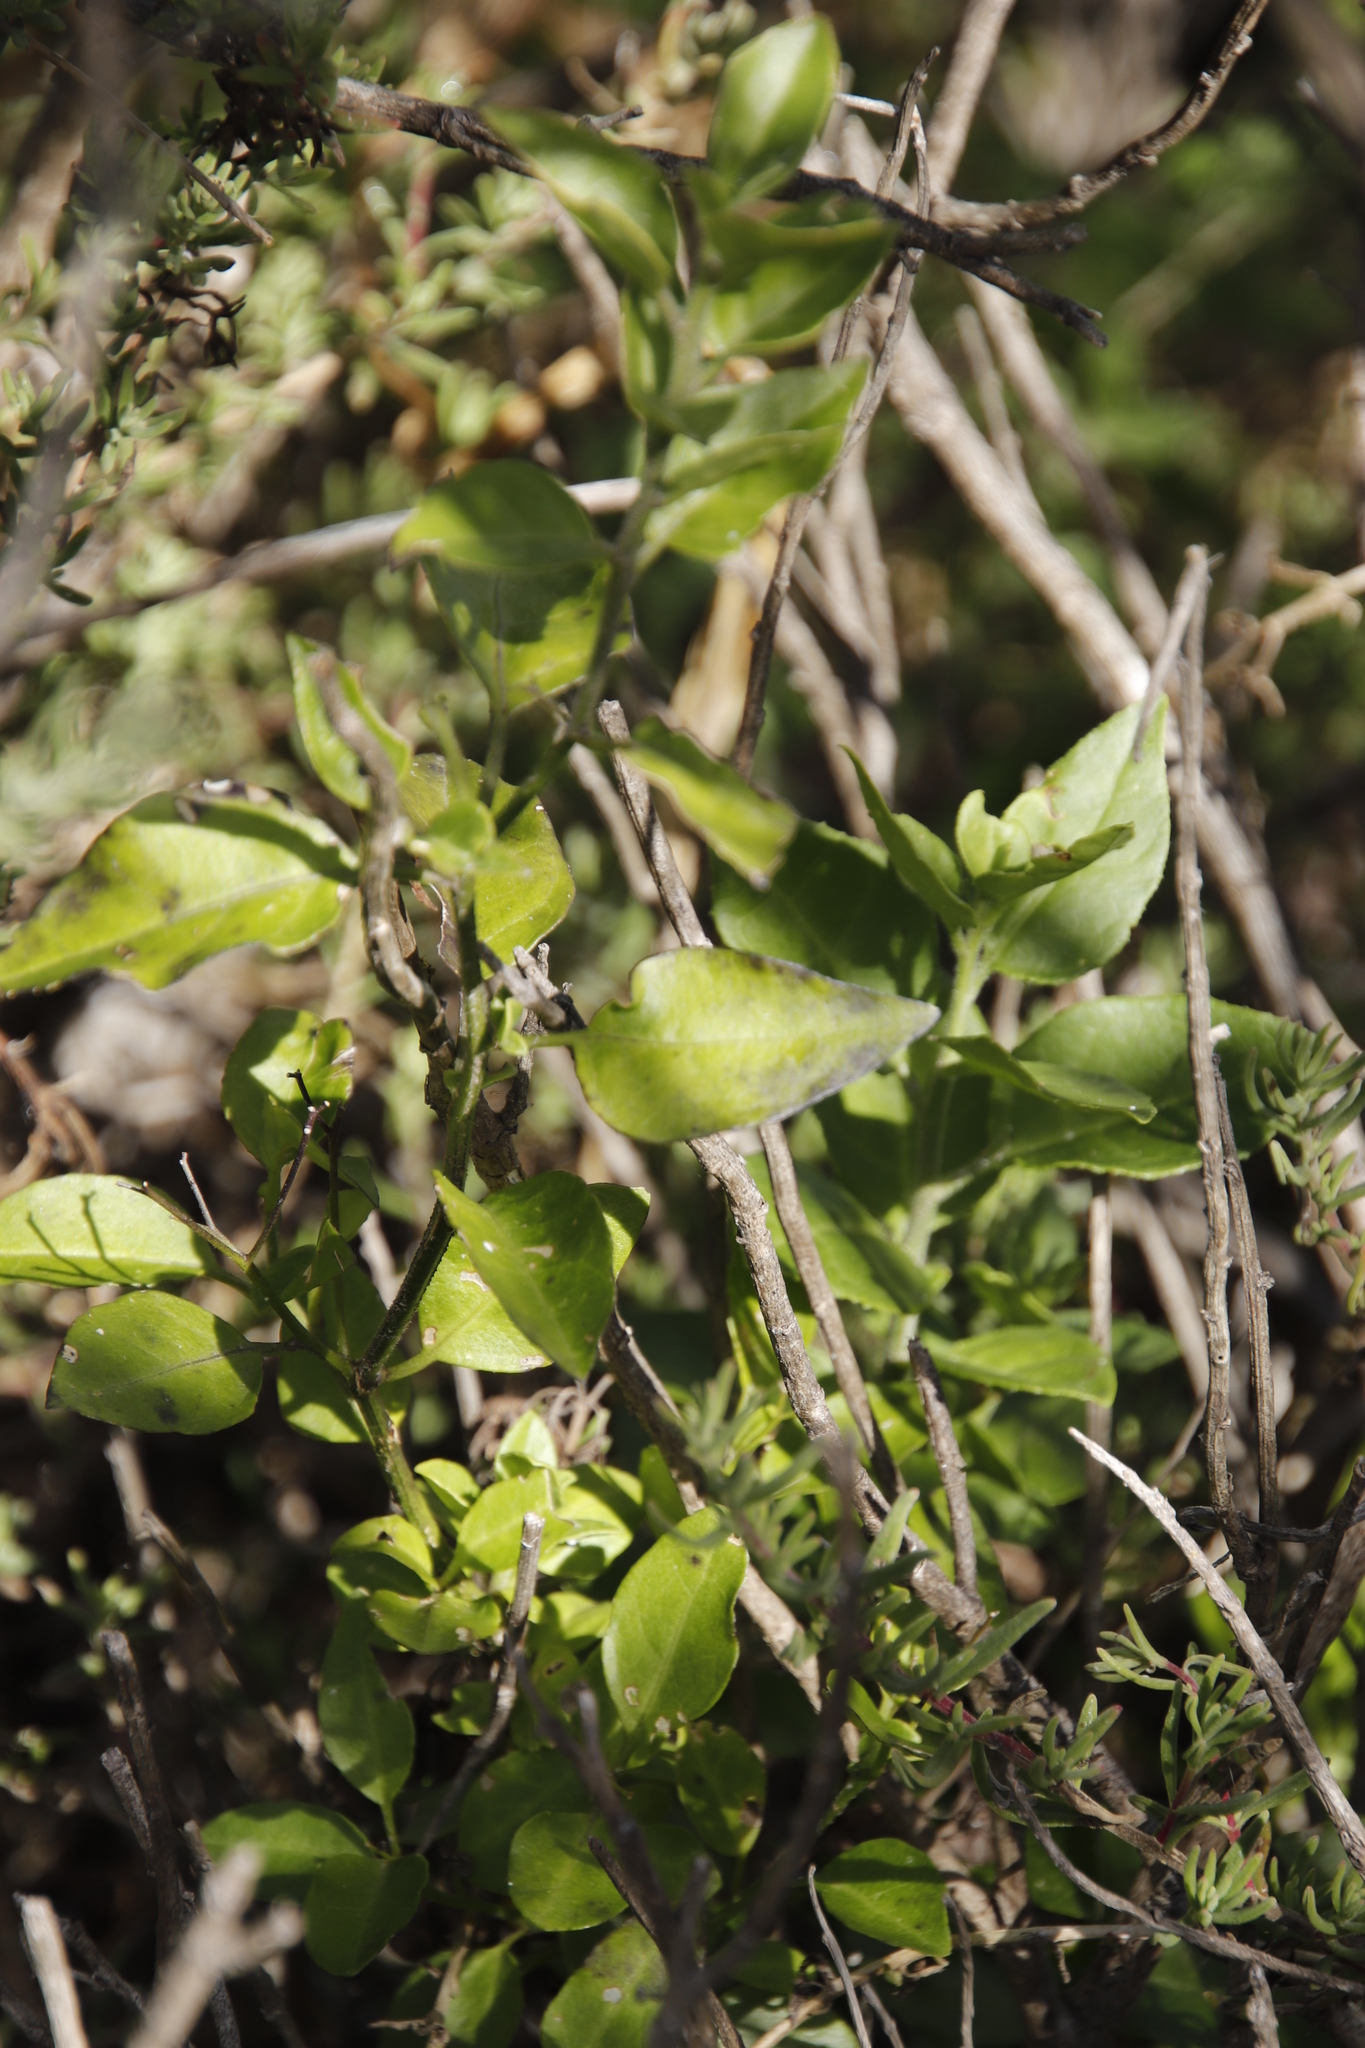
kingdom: Plantae
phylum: Tracheophyta
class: Magnoliopsida
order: Gentianales
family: Apocynaceae
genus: Cynanchum
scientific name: Cynanchum ellipticum
